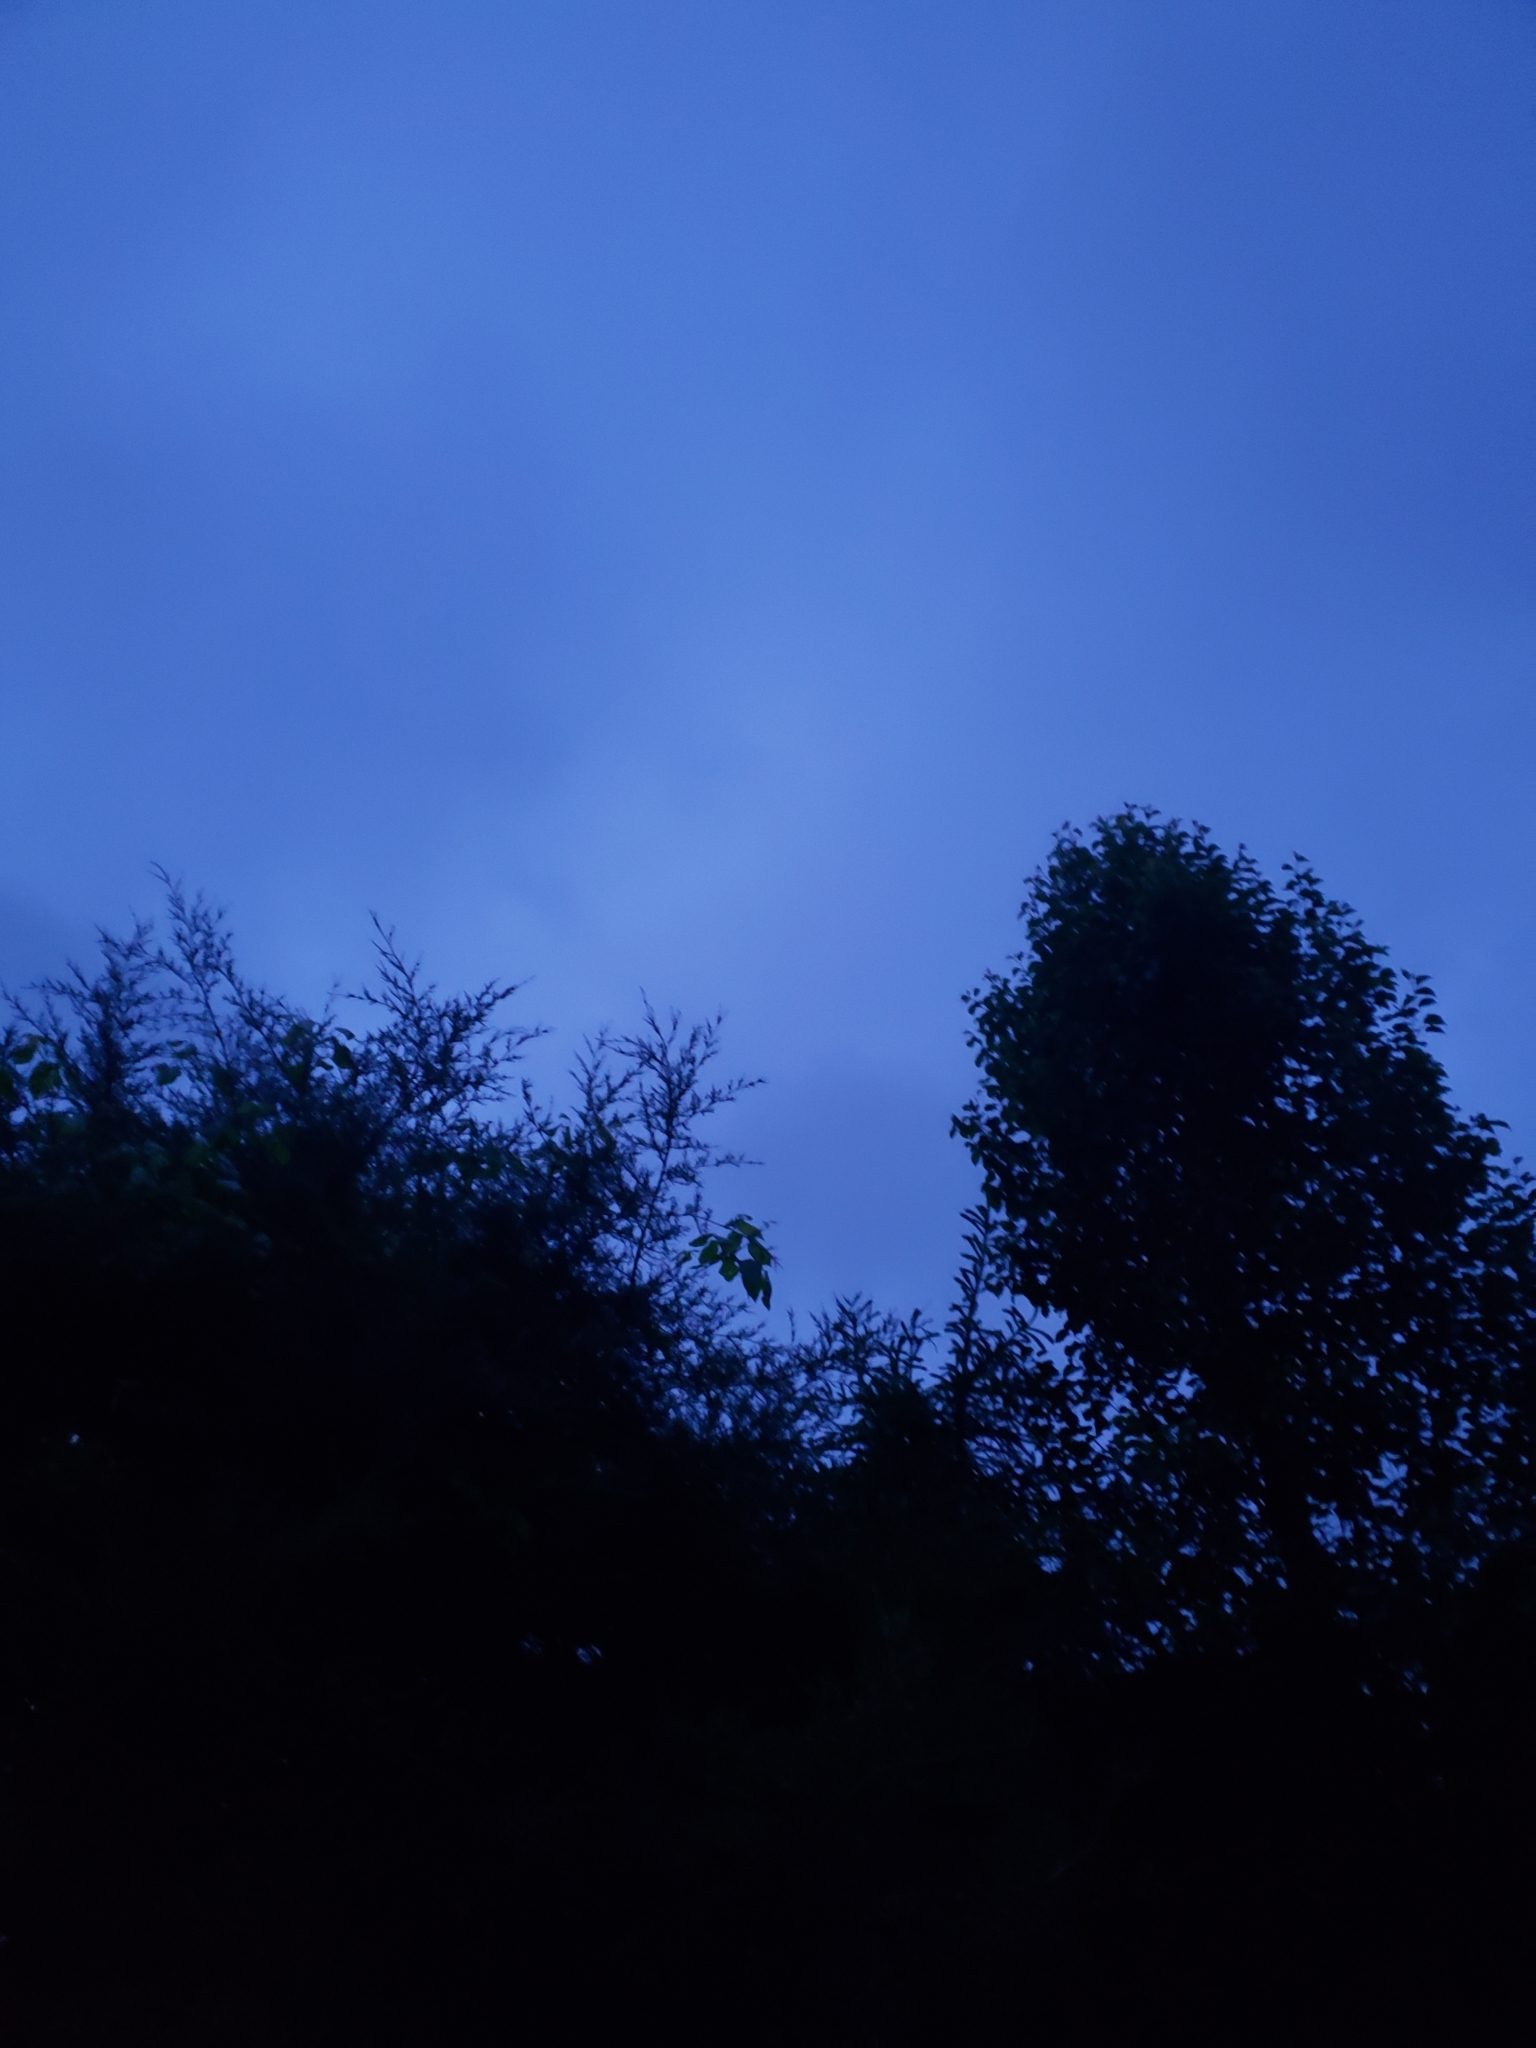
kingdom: Animalia
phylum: Chordata
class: Aves
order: Caprimulgiformes
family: Caprimulgidae
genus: Antrostomus
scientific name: Antrostomus vociferus
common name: Eastern whip-poor-will
